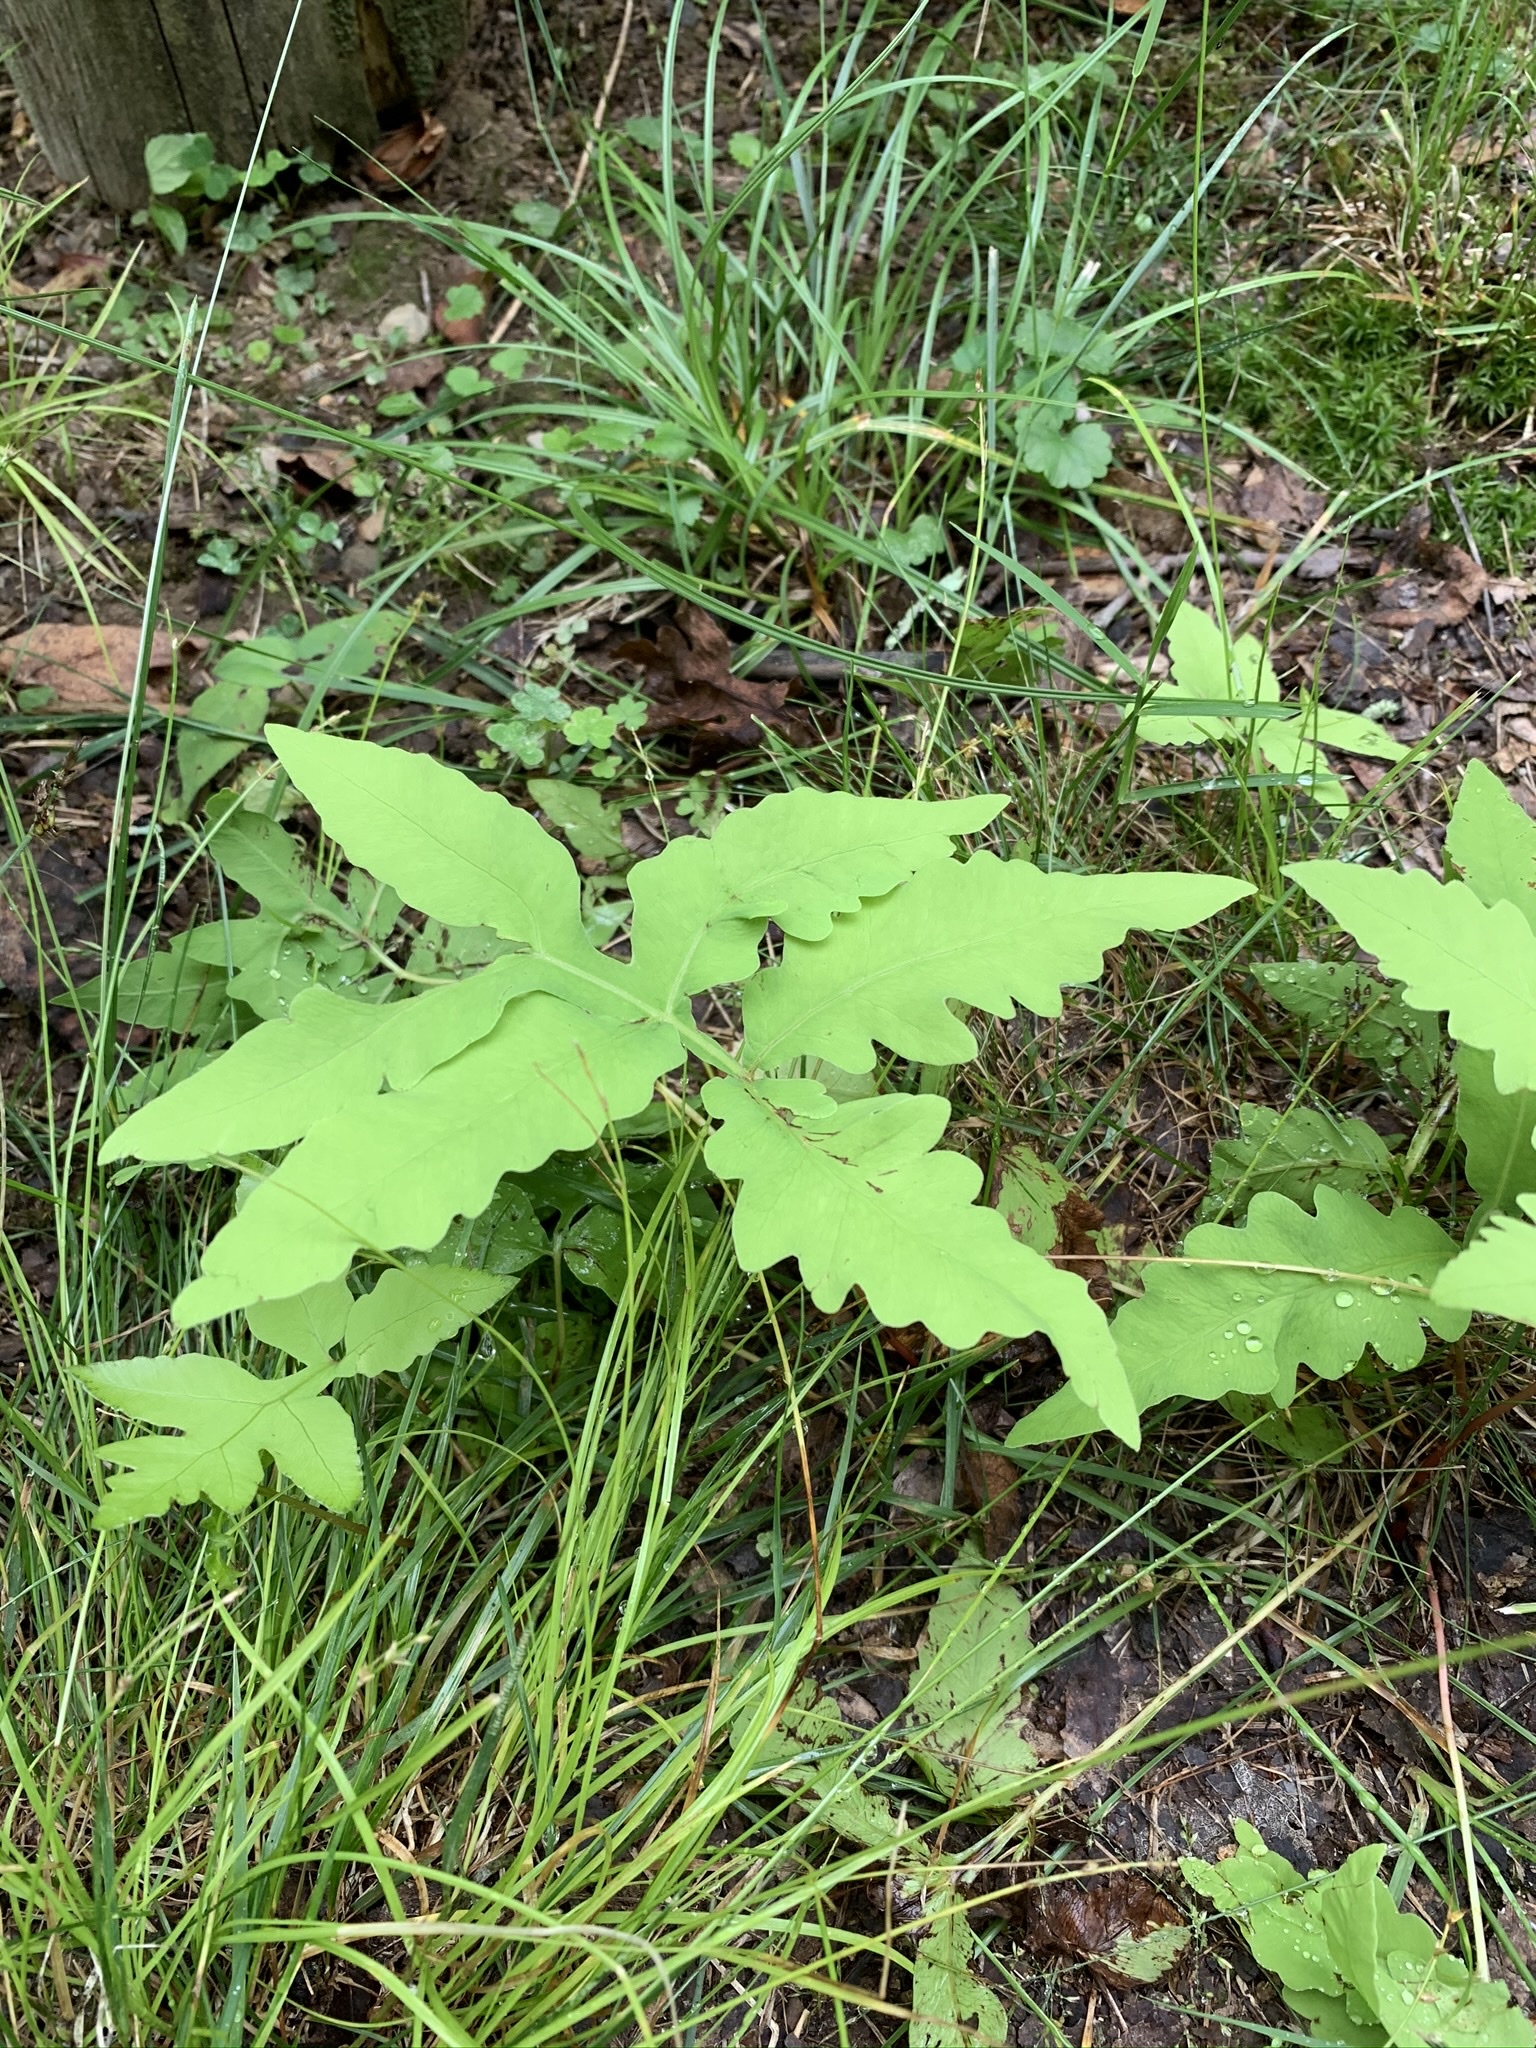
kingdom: Plantae
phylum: Tracheophyta
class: Polypodiopsida
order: Polypodiales
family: Onocleaceae
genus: Onoclea
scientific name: Onoclea sensibilis
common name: Sensitive fern
